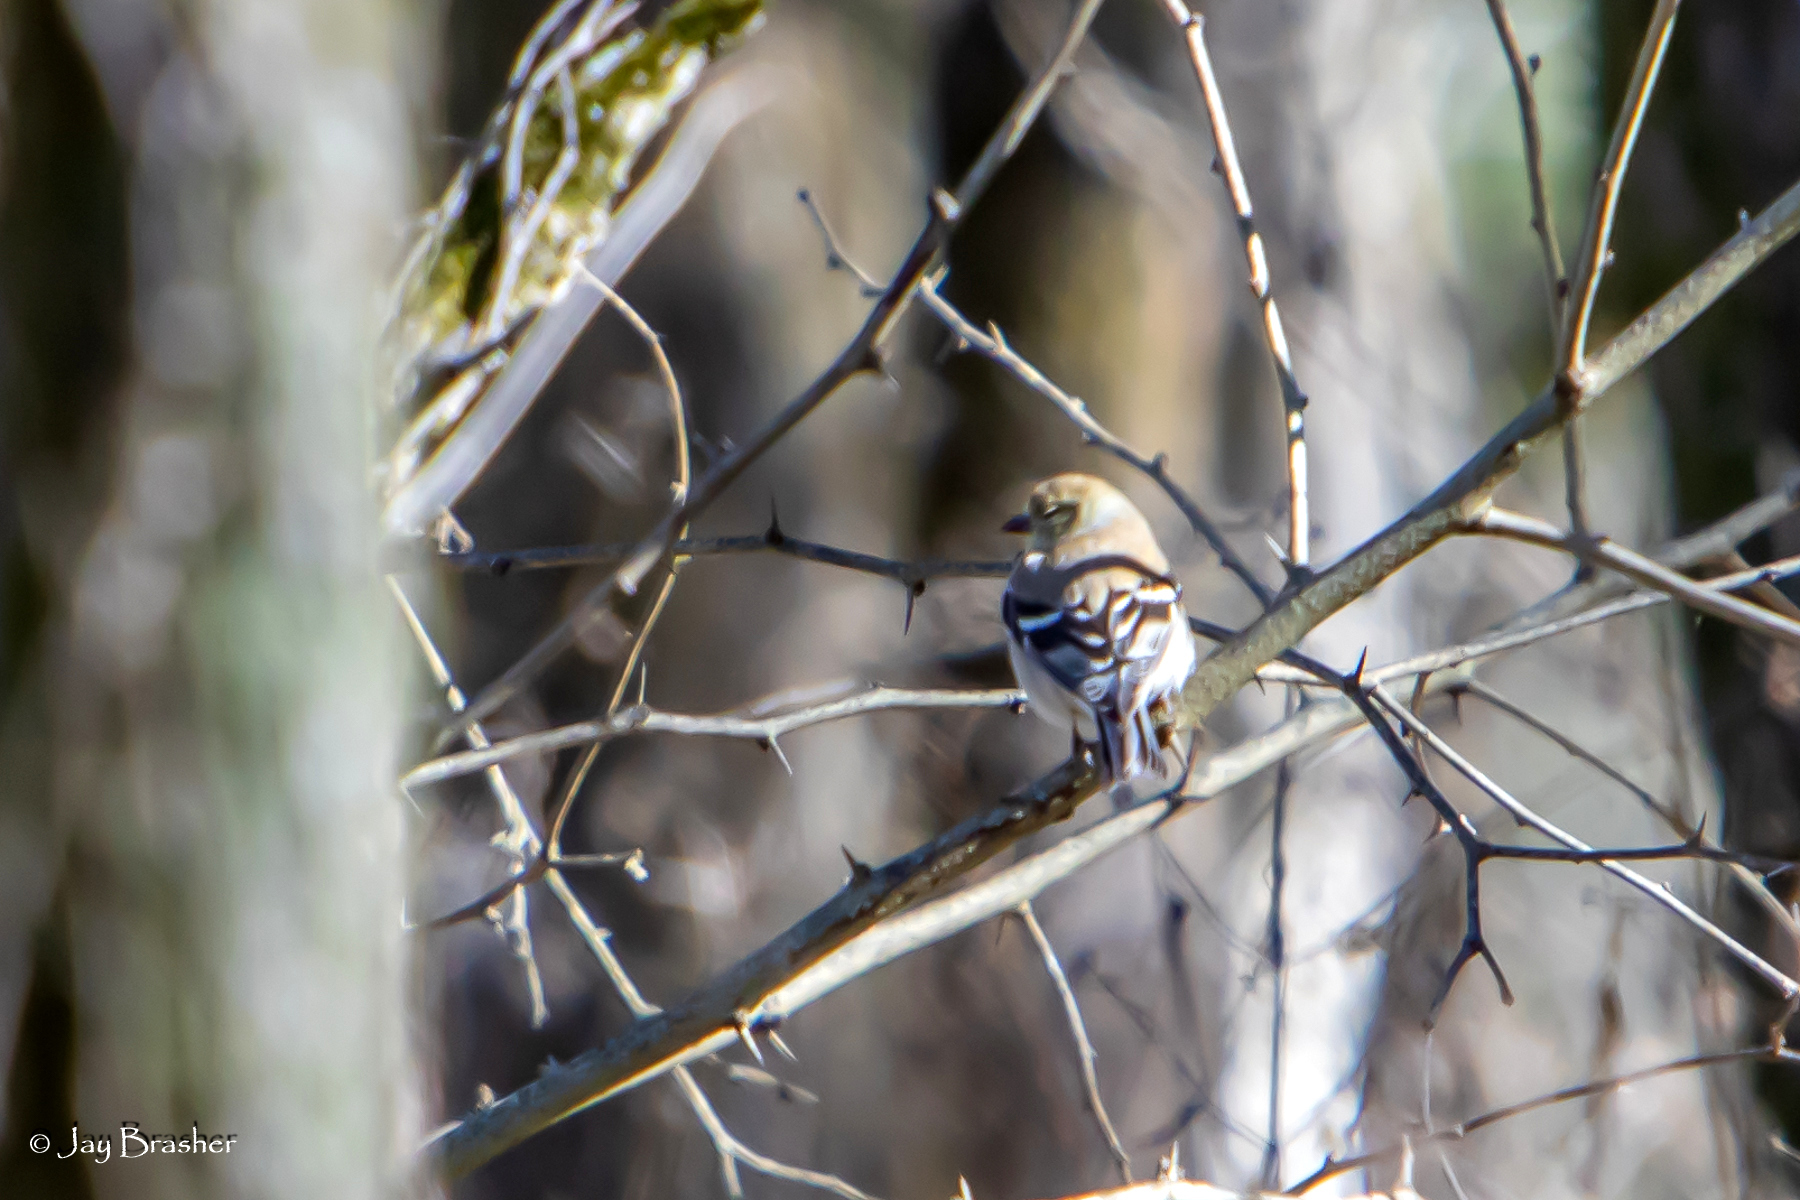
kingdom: Animalia
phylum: Chordata
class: Aves
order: Passeriformes
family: Fringillidae
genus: Spinus
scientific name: Spinus tristis
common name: American goldfinch
